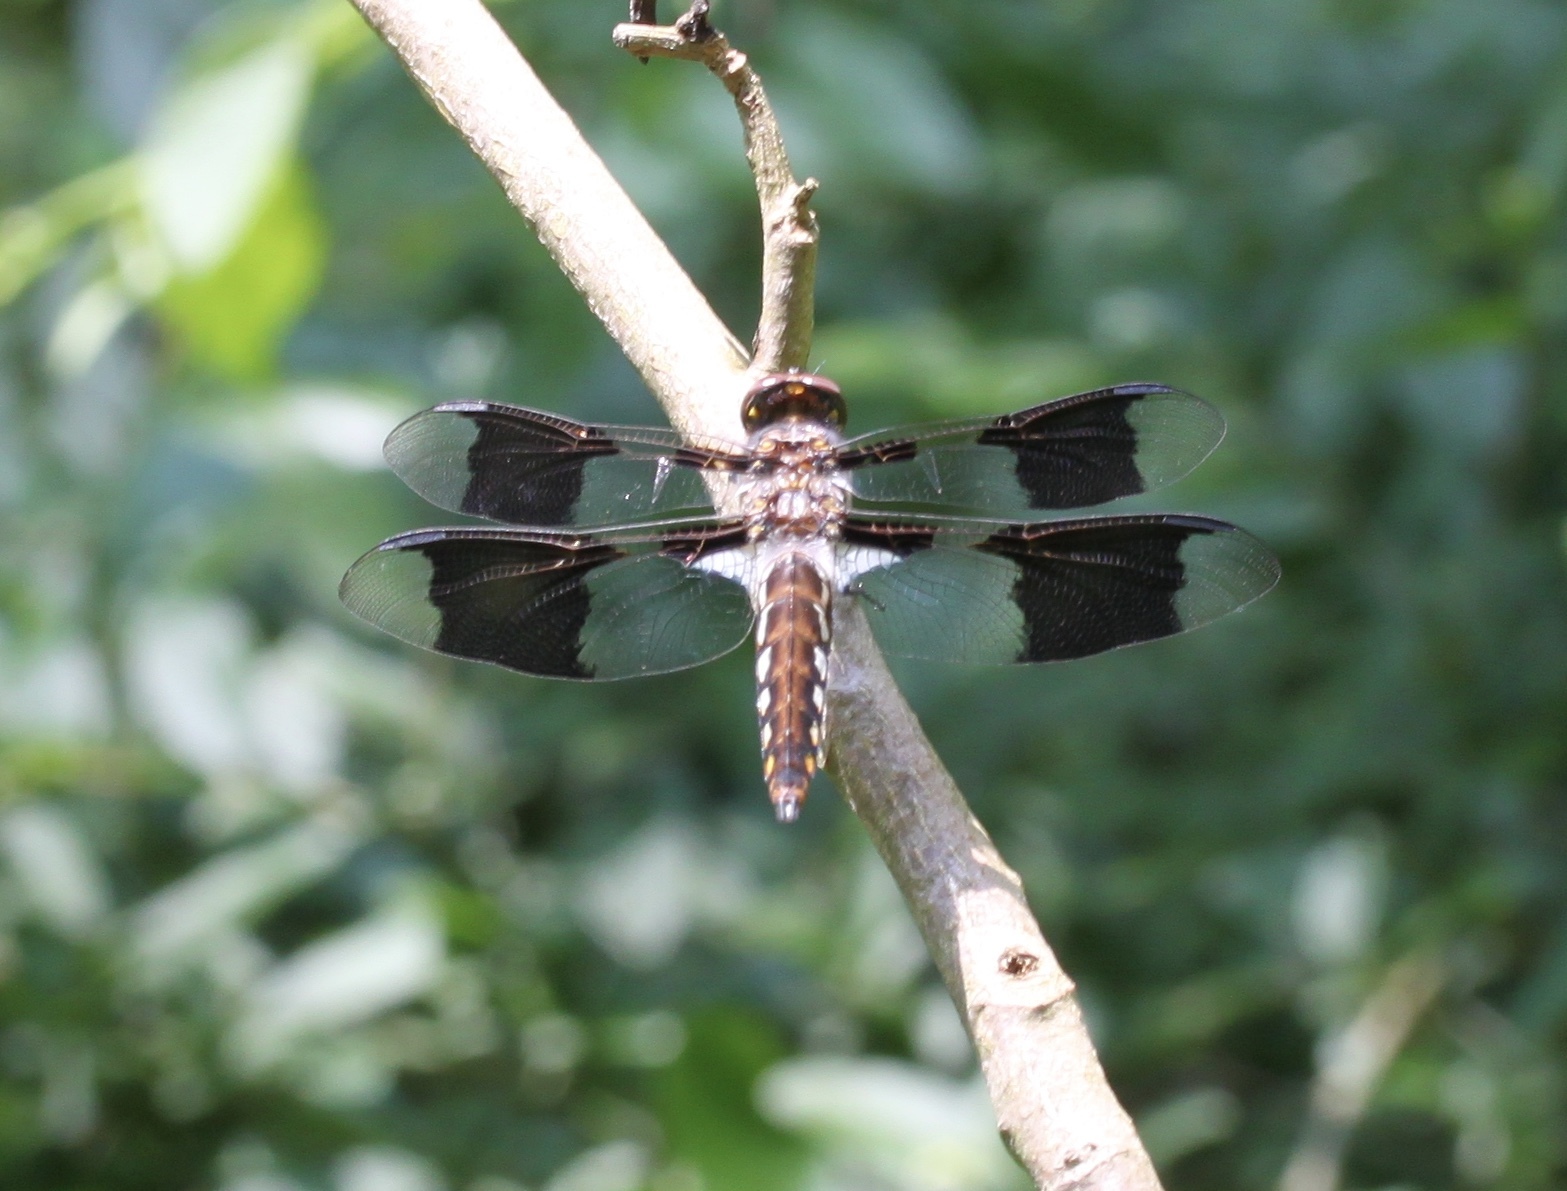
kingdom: Animalia
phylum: Arthropoda
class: Insecta
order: Odonata
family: Libellulidae
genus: Plathemis
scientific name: Plathemis lydia
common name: Common whitetail
